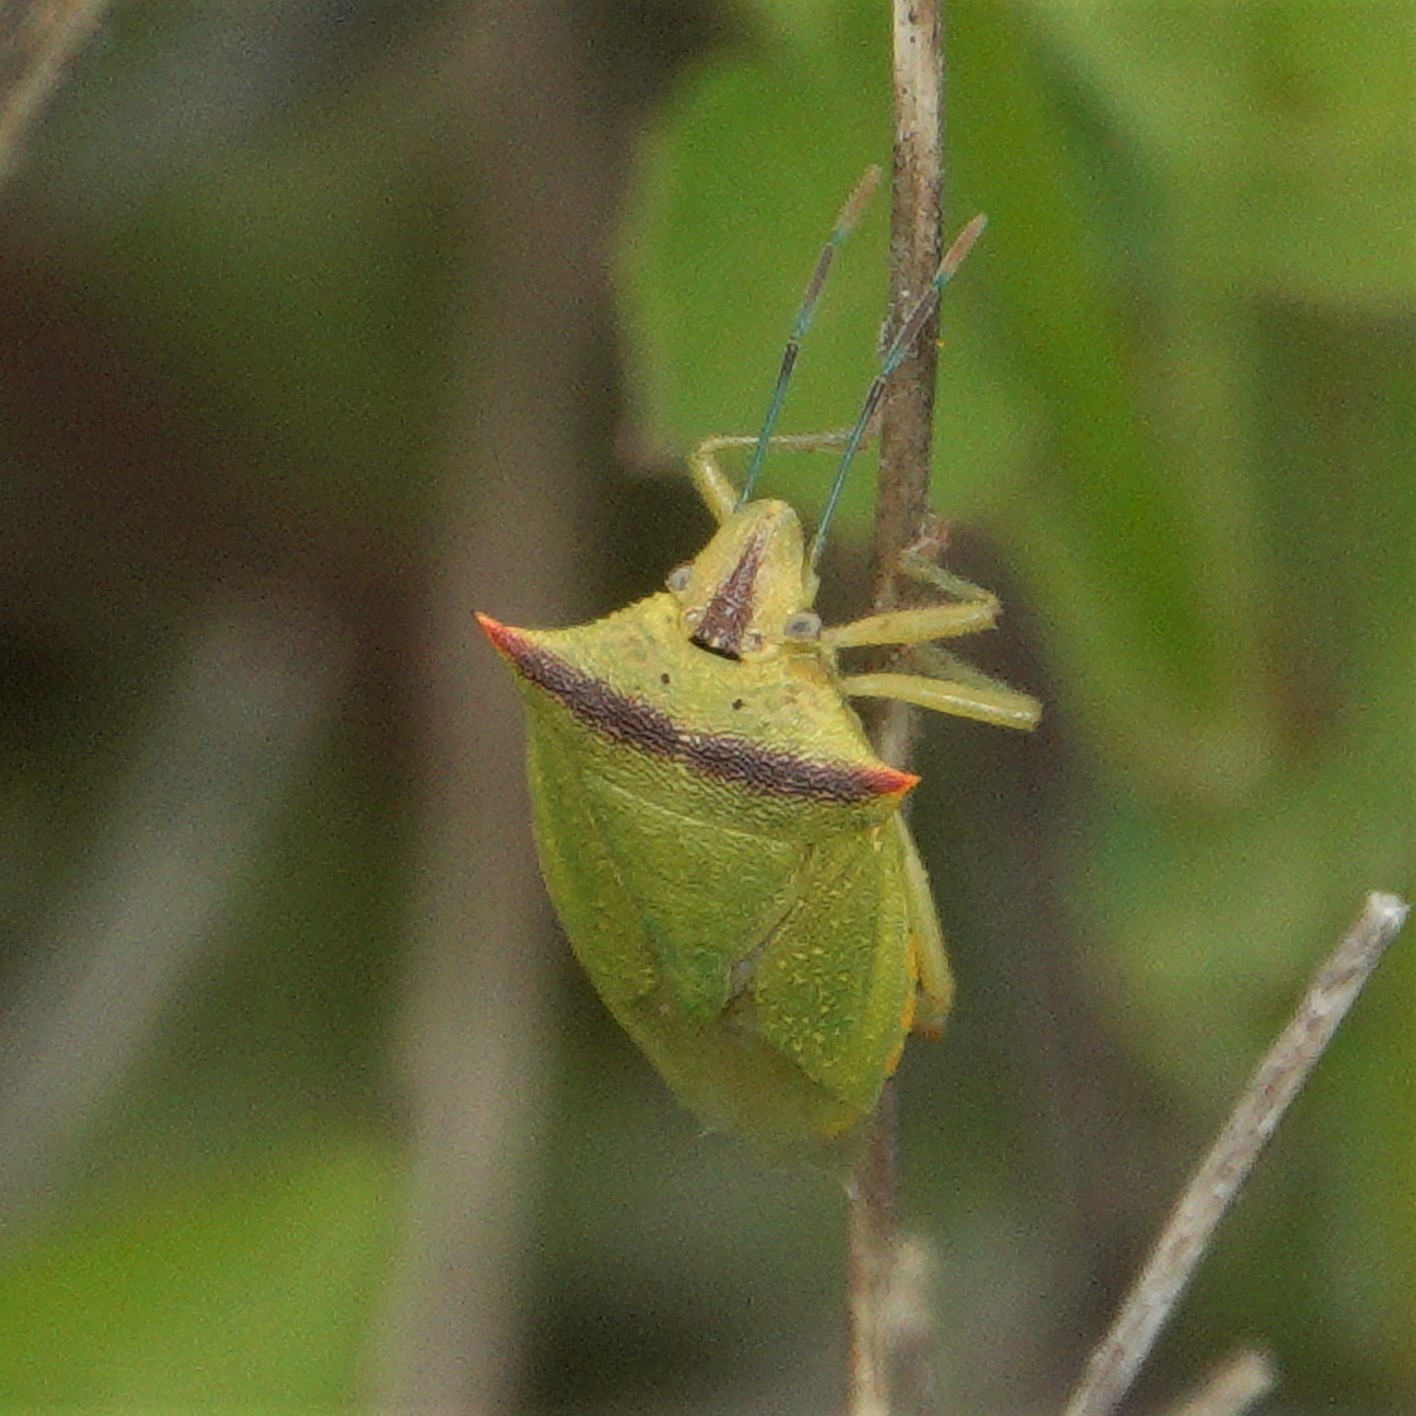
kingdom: Animalia
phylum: Arthropoda
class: Insecta
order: Hemiptera
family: Pentatomidae
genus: Thyanta
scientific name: Thyanta perditor
